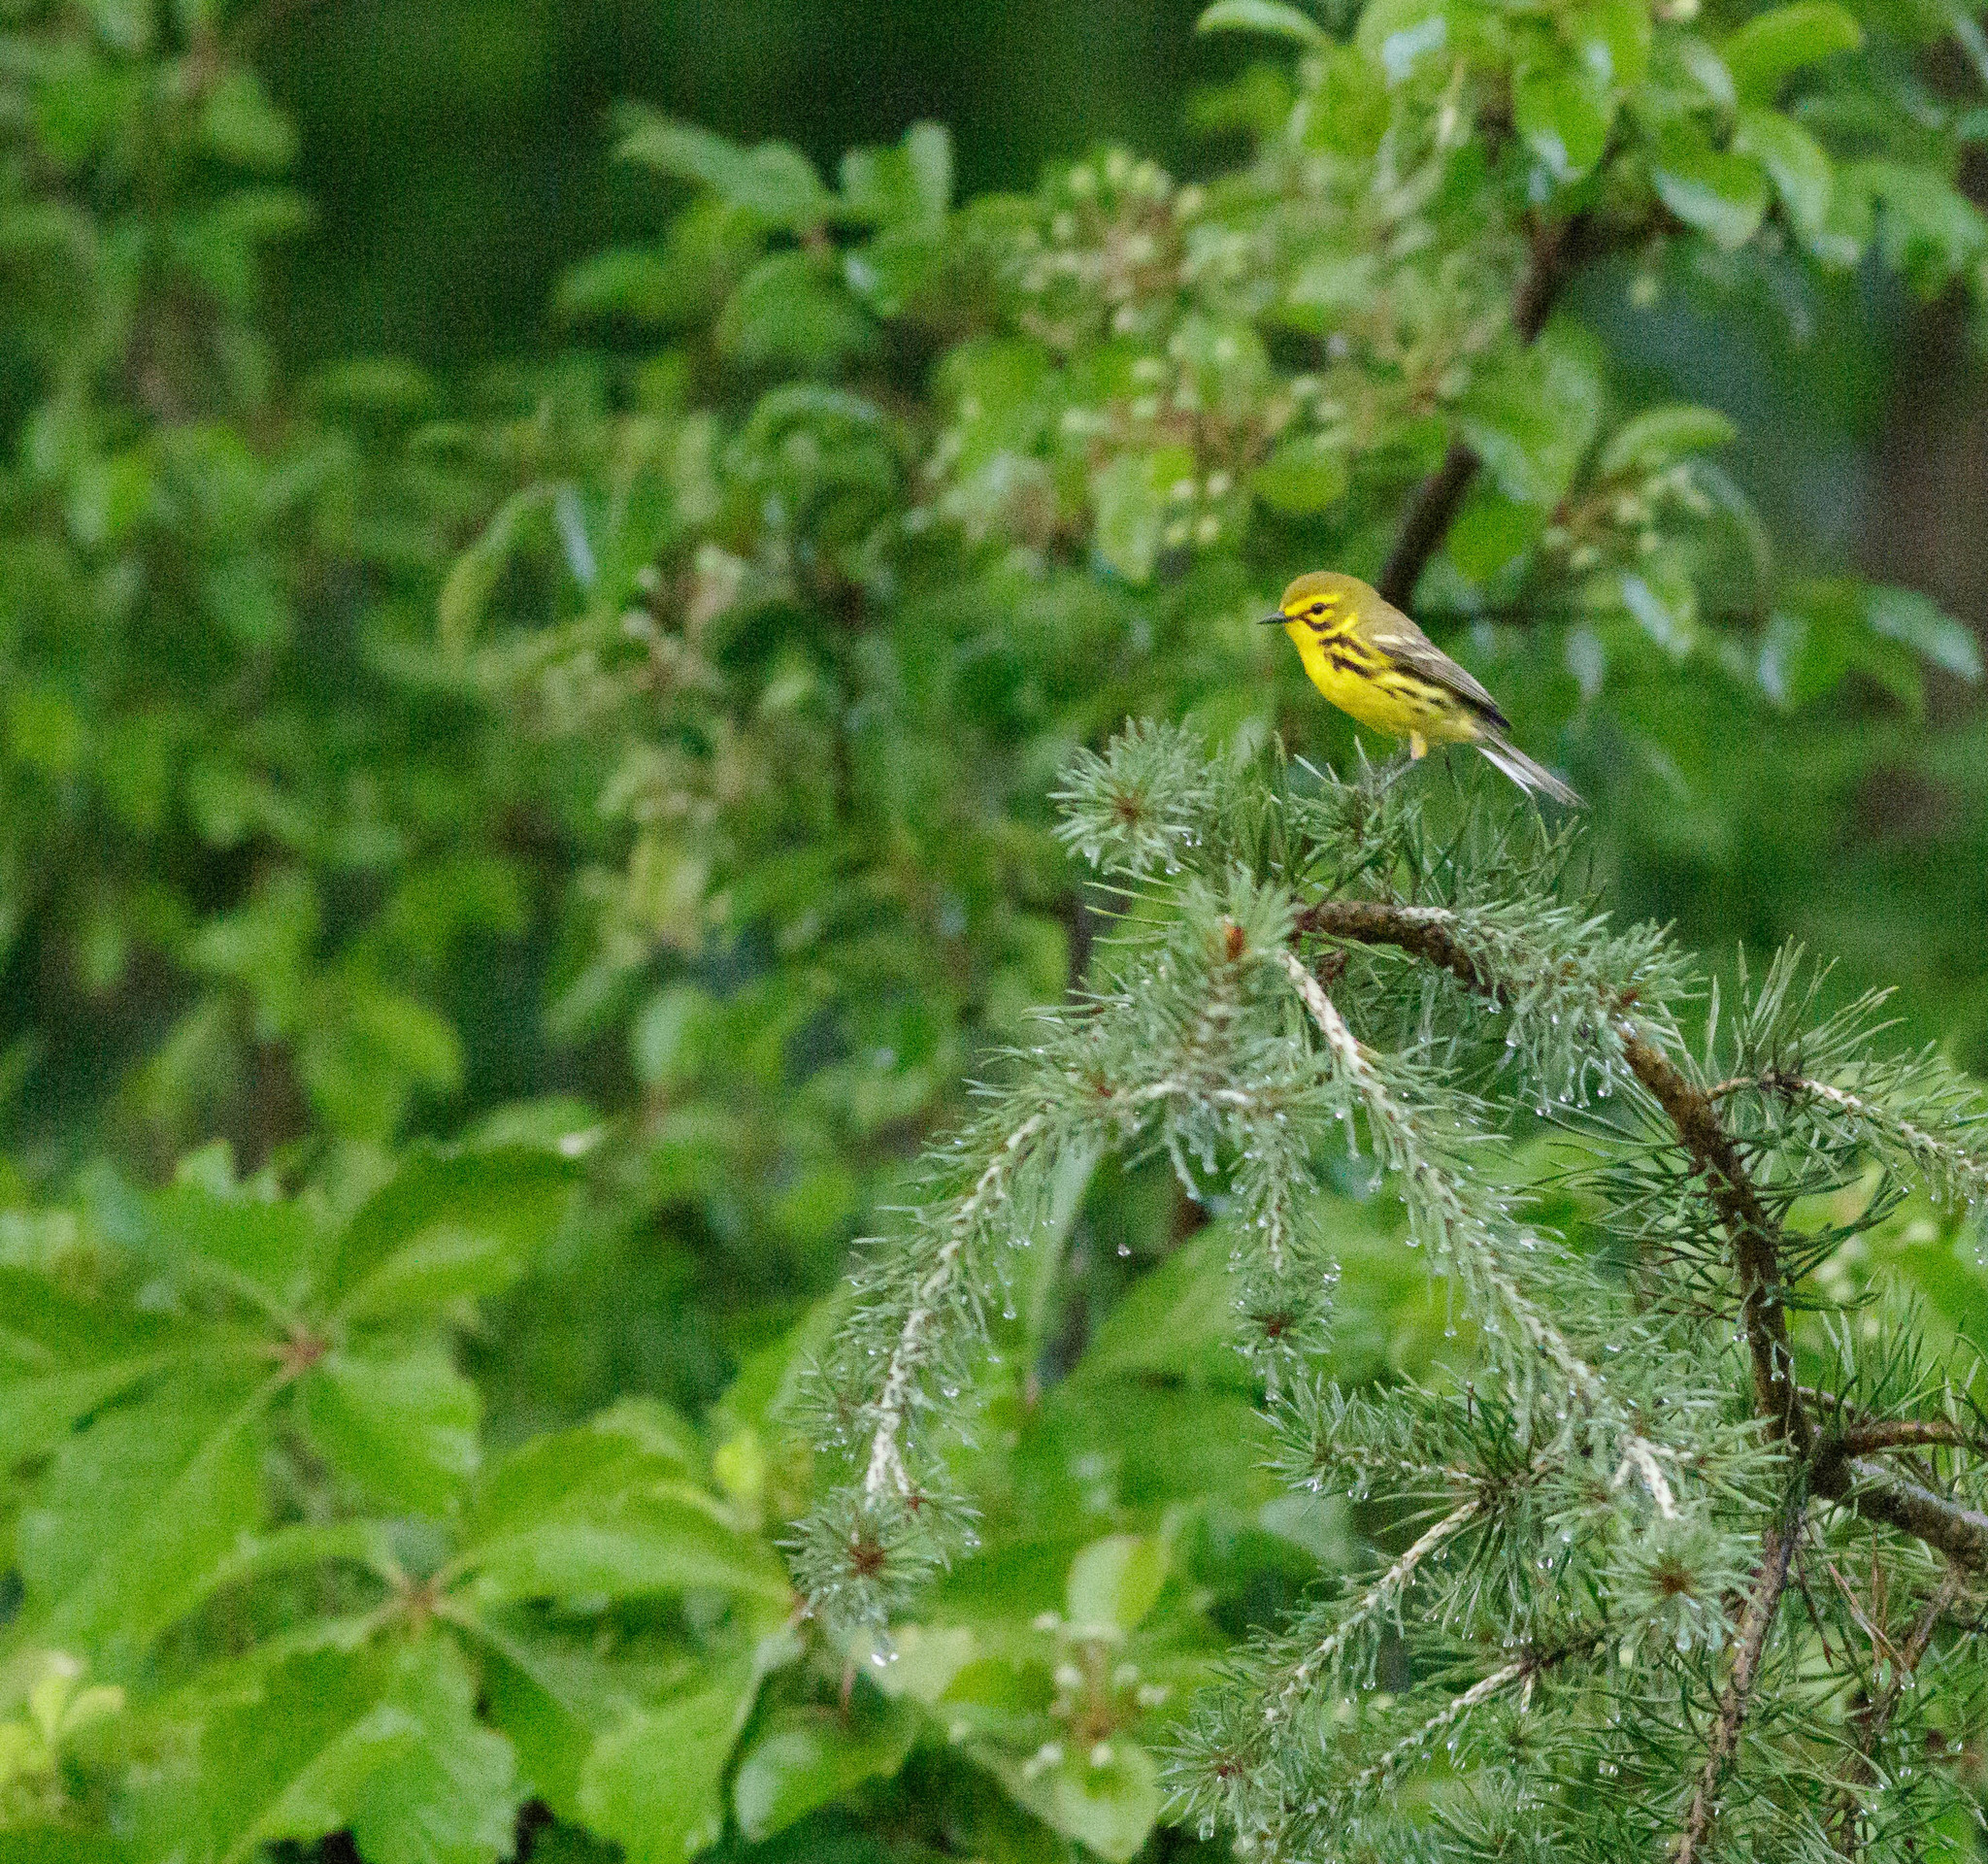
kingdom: Animalia
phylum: Chordata
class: Aves
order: Passeriformes
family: Parulidae
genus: Setophaga
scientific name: Setophaga discolor
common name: Prairie warbler
